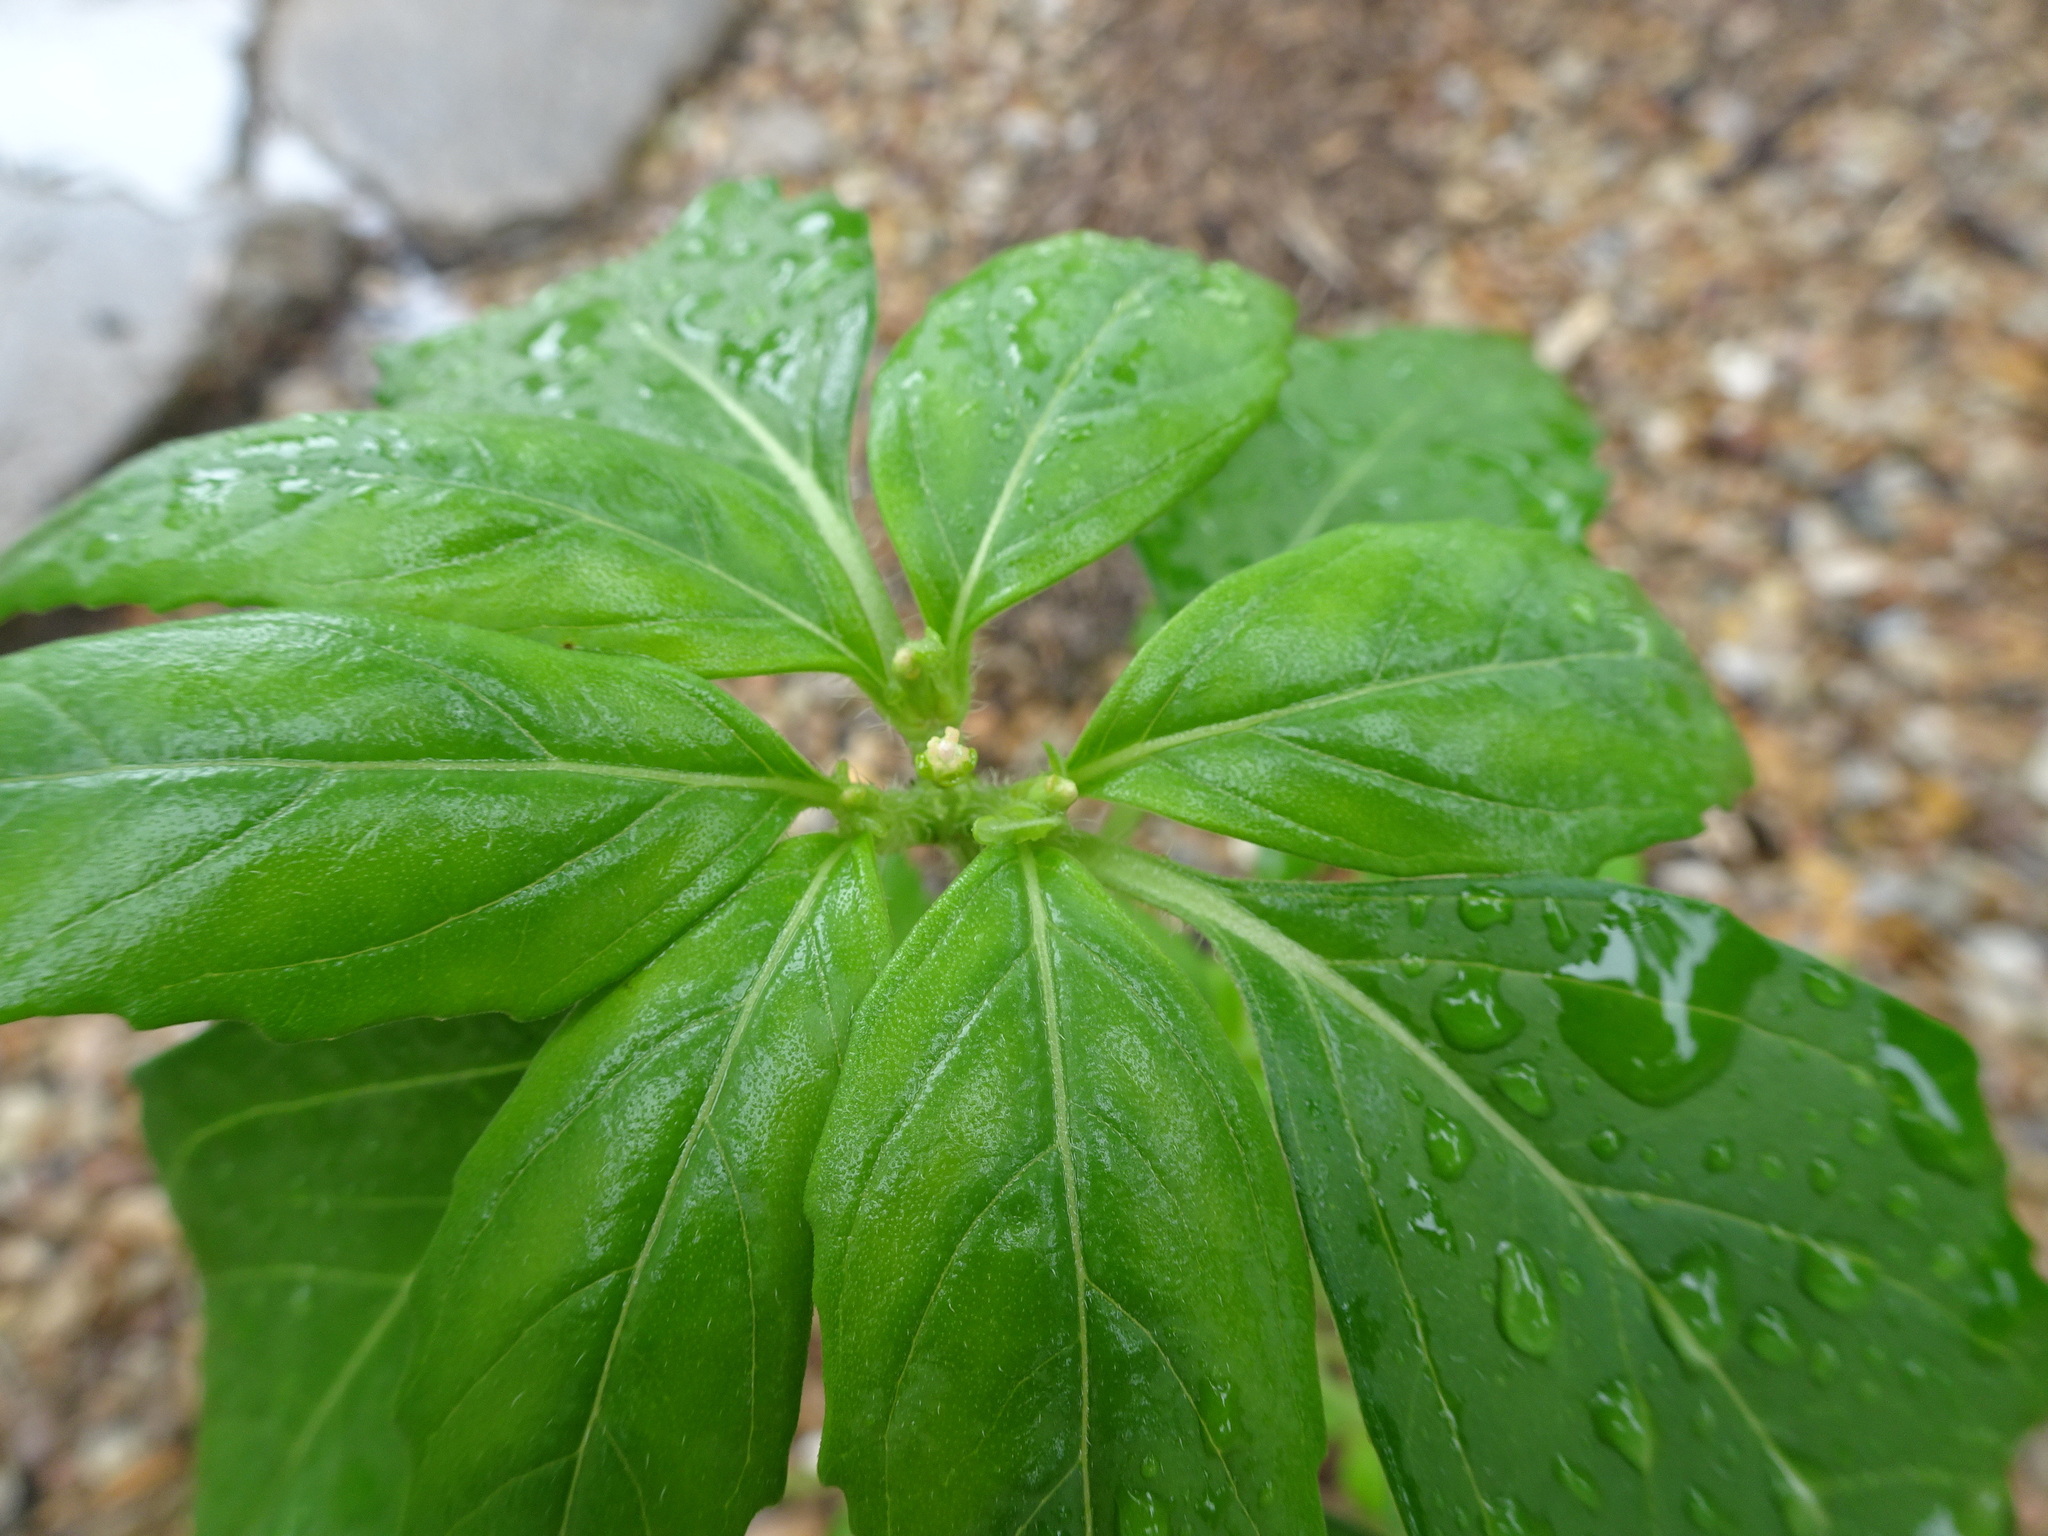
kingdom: Plantae
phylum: Tracheophyta
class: Magnoliopsida
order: Malpighiales
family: Euphorbiaceae
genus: Euphorbia
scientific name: Euphorbia dentata
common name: Dentate spurge
